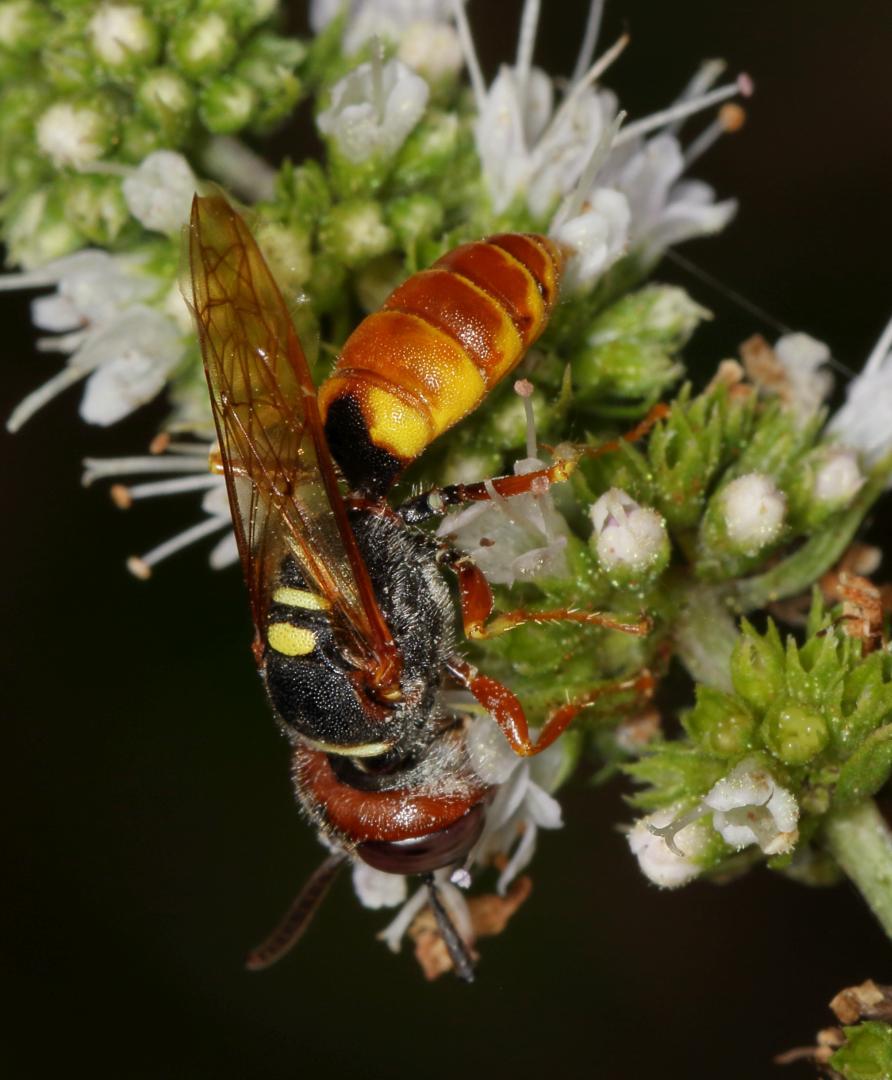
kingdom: Animalia
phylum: Arthropoda
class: Insecta
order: Hymenoptera
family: Crabronidae
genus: Philanthus
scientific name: Philanthus triangulum
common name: Bee wolf
